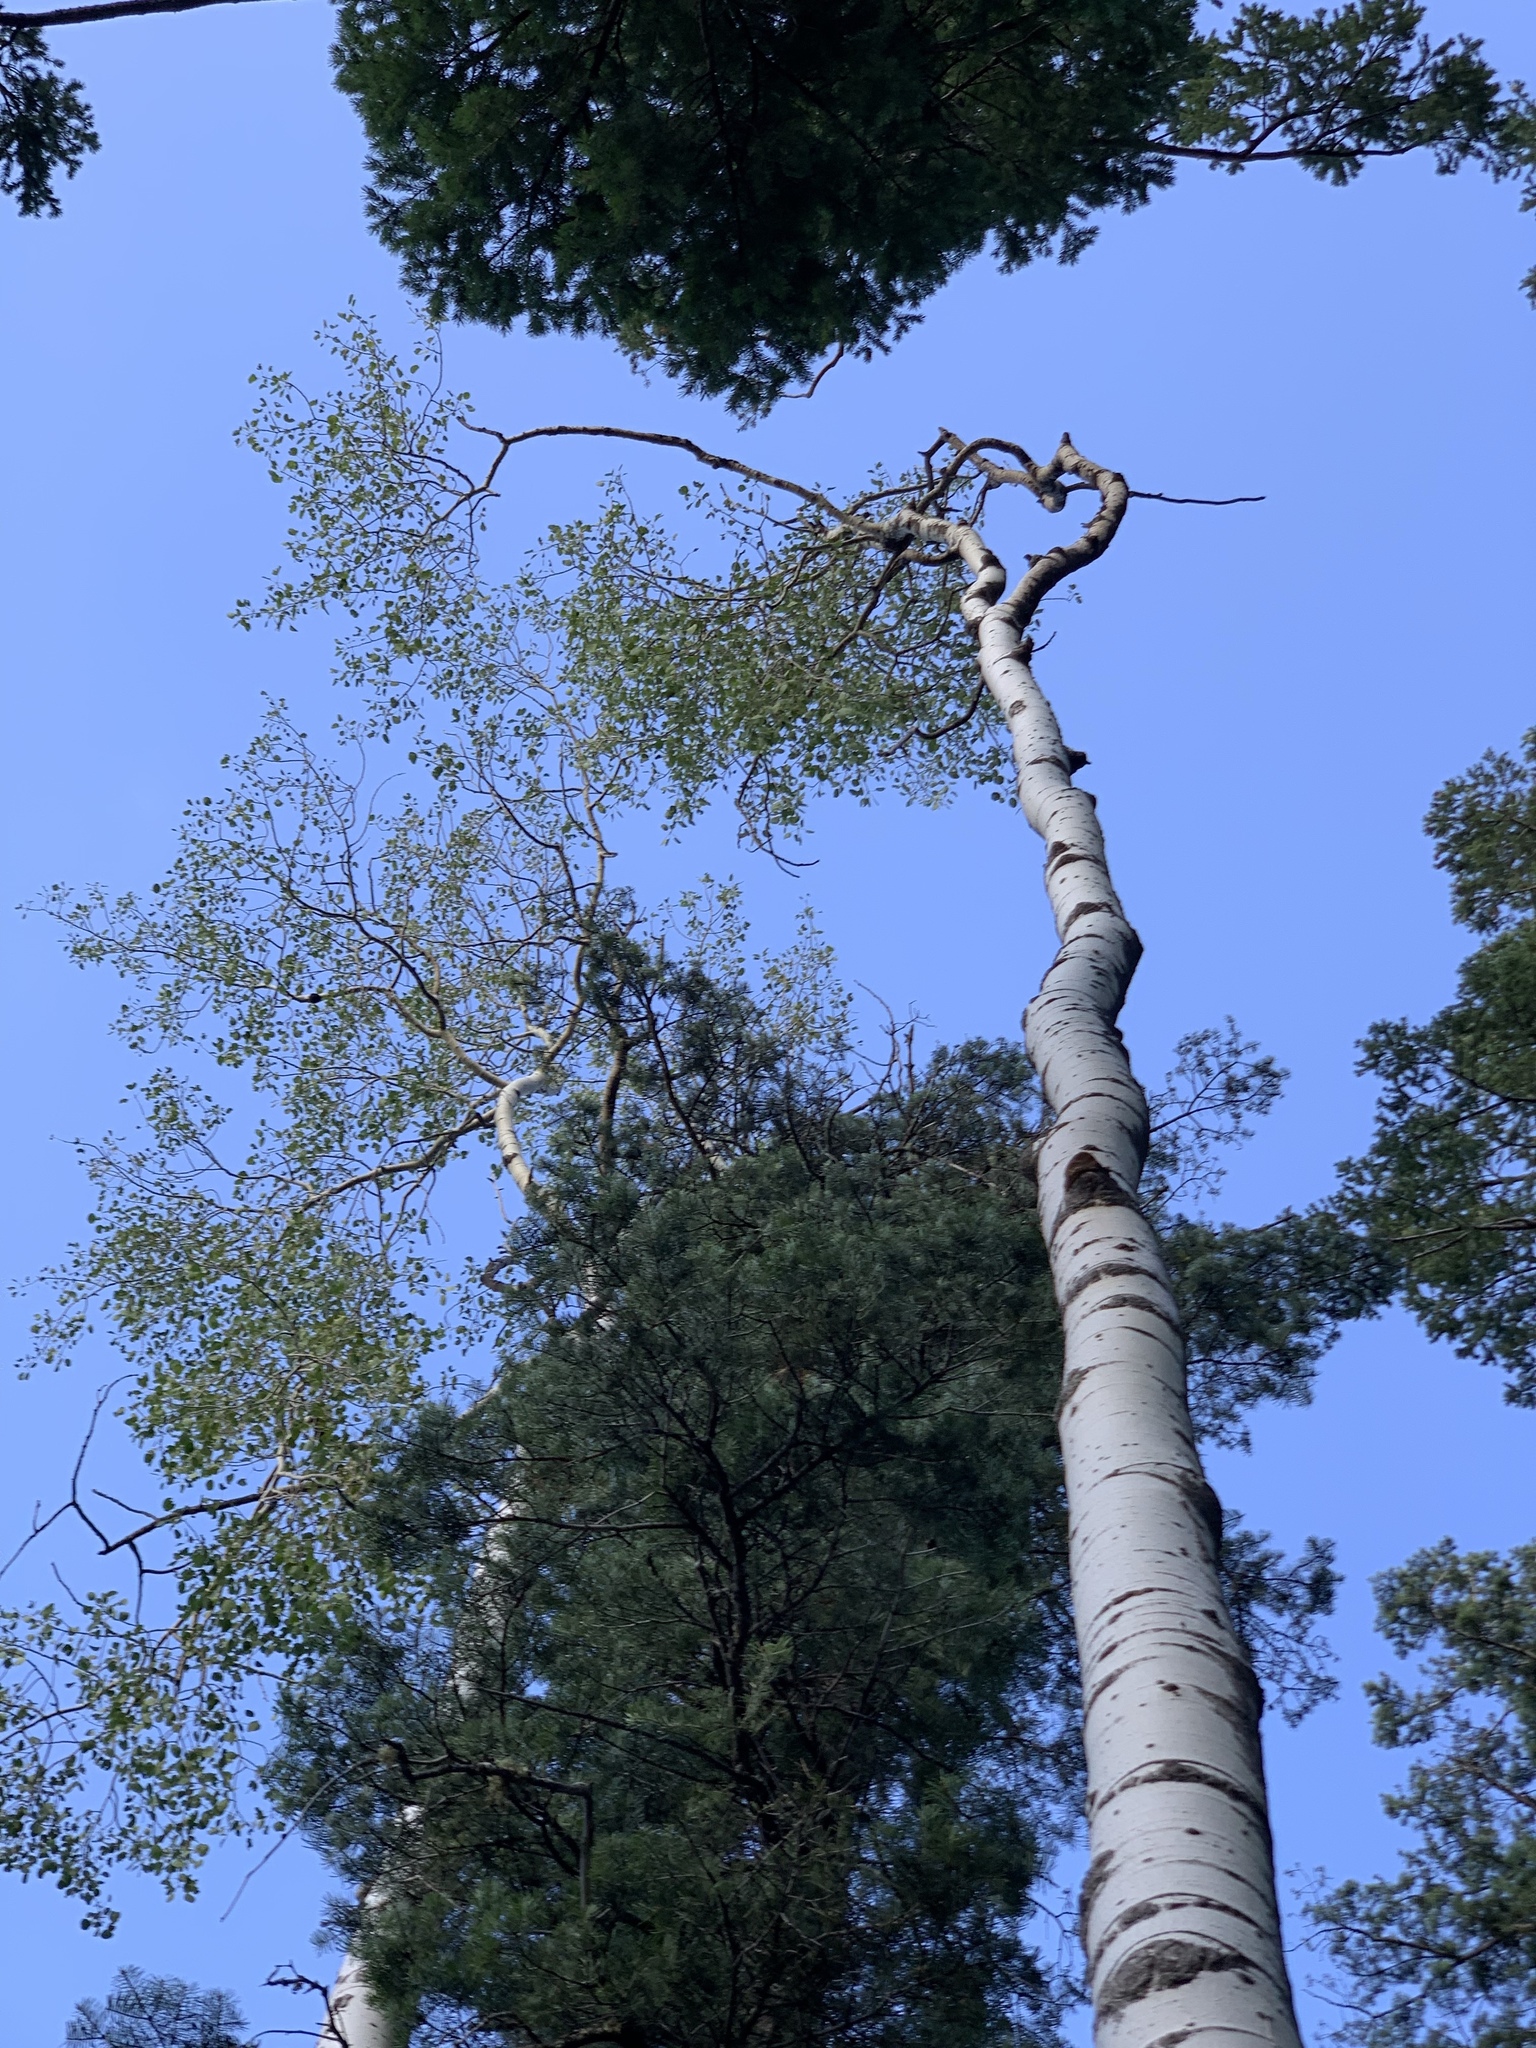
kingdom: Plantae
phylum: Tracheophyta
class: Magnoliopsida
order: Malpighiales
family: Salicaceae
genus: Populus
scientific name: Populus tremuloides
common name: Quaking aspen
